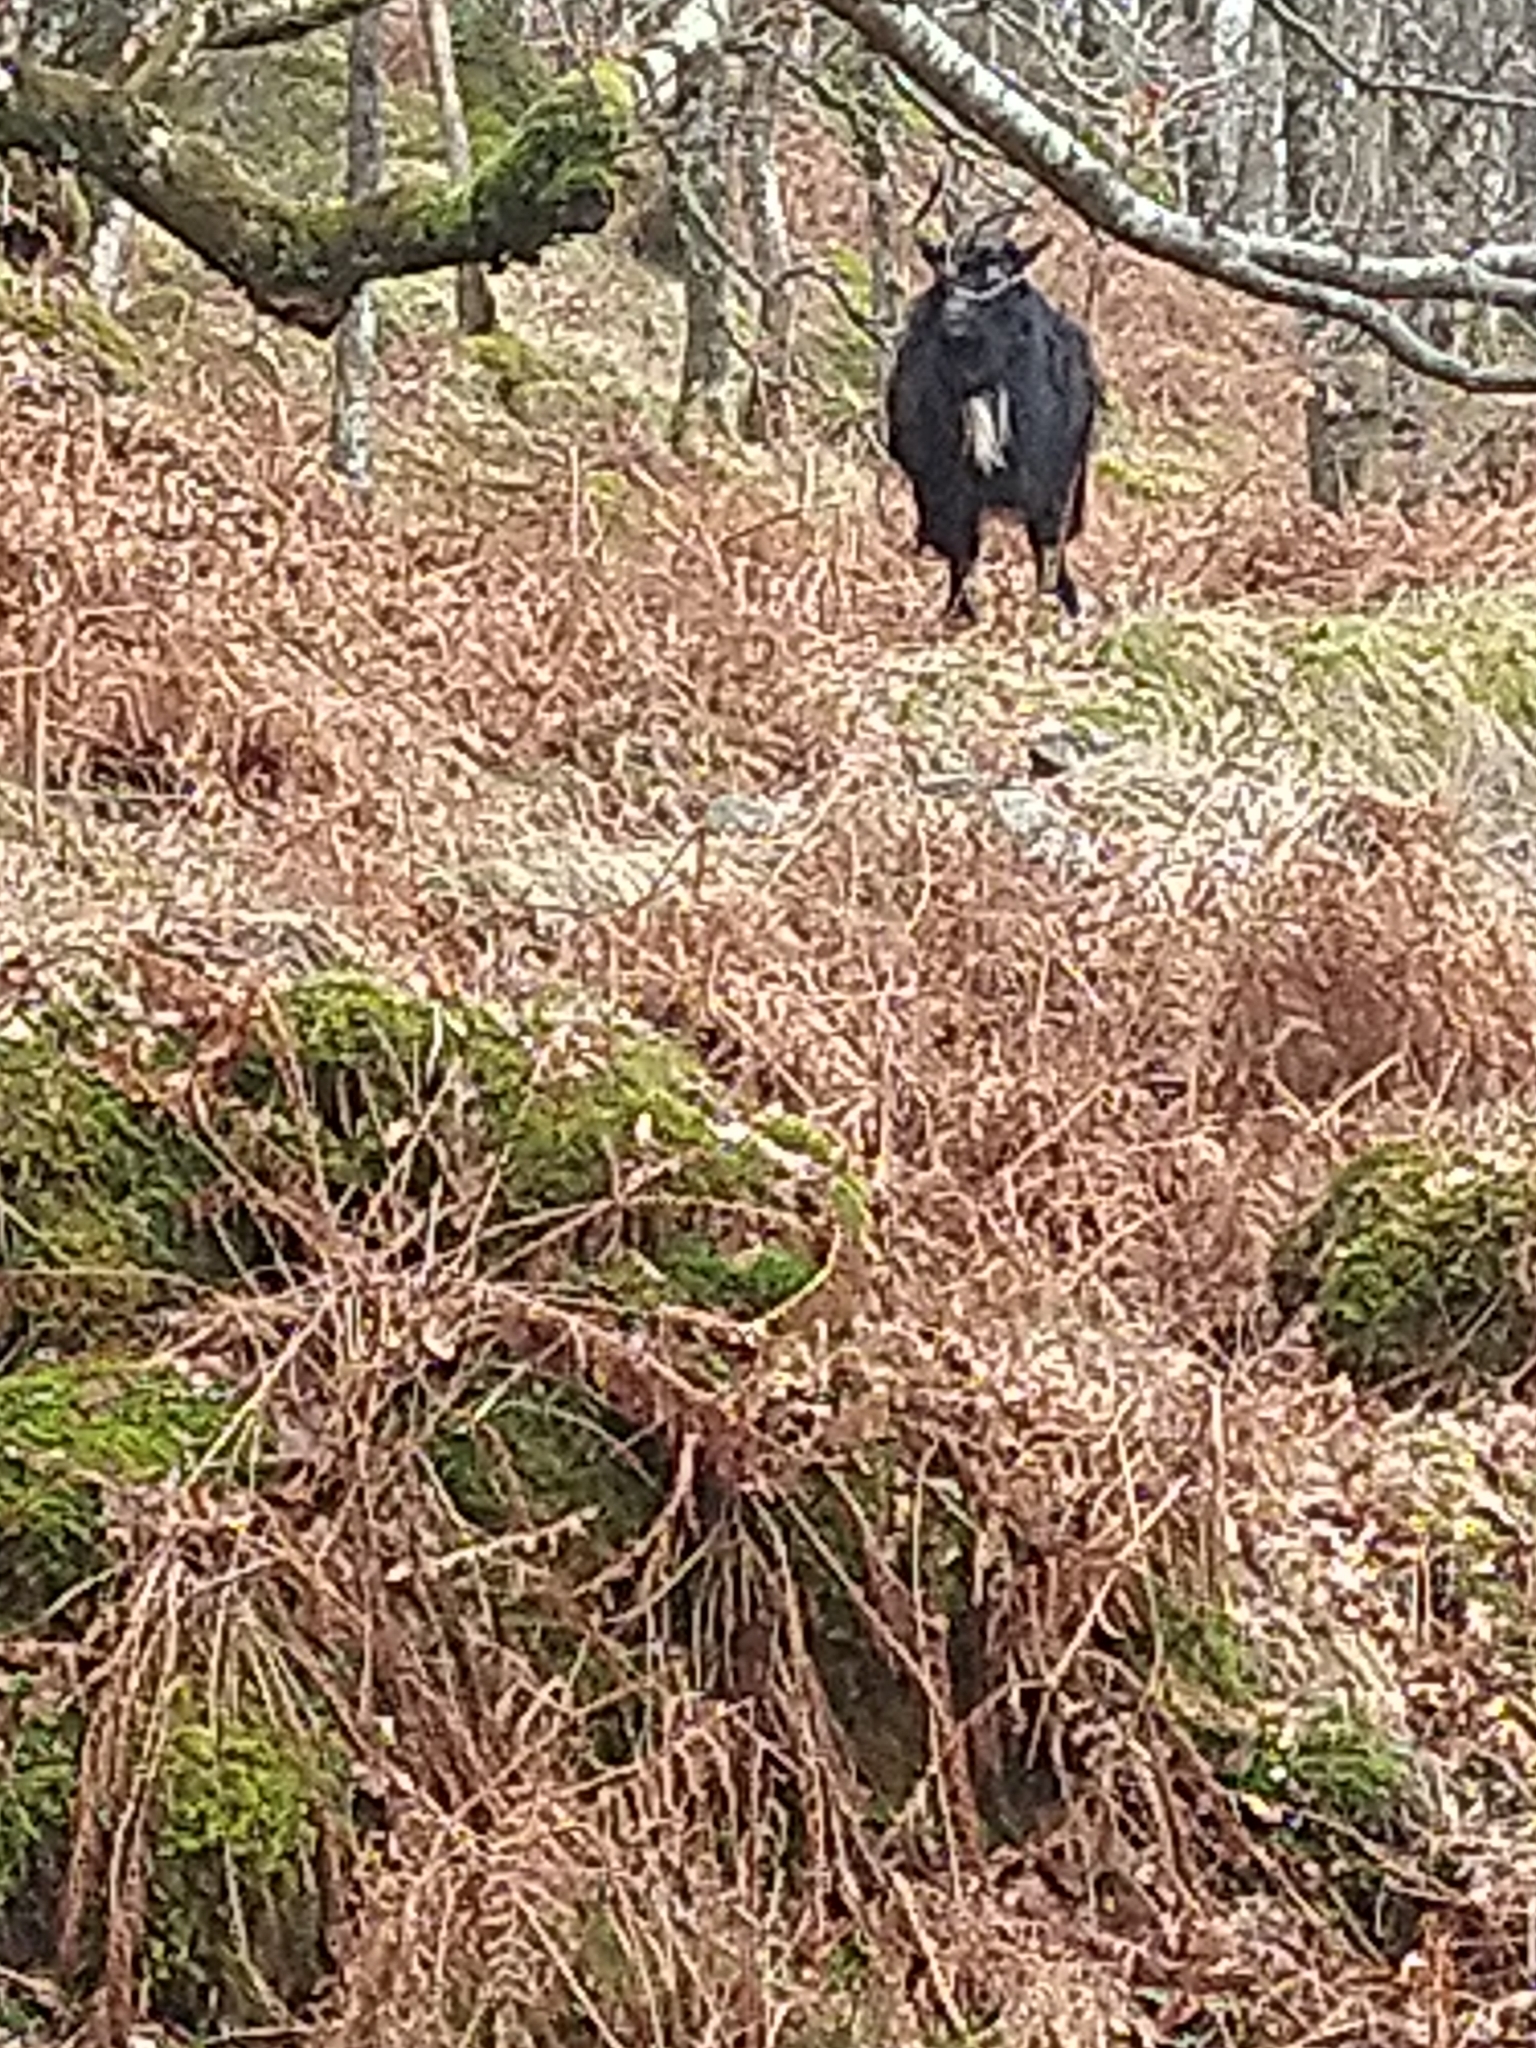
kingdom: Animalia
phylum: Chordata
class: Mammalia
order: Artiodactyla
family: Bovidae
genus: Capra
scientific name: Capra hircus
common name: Domestic goat
